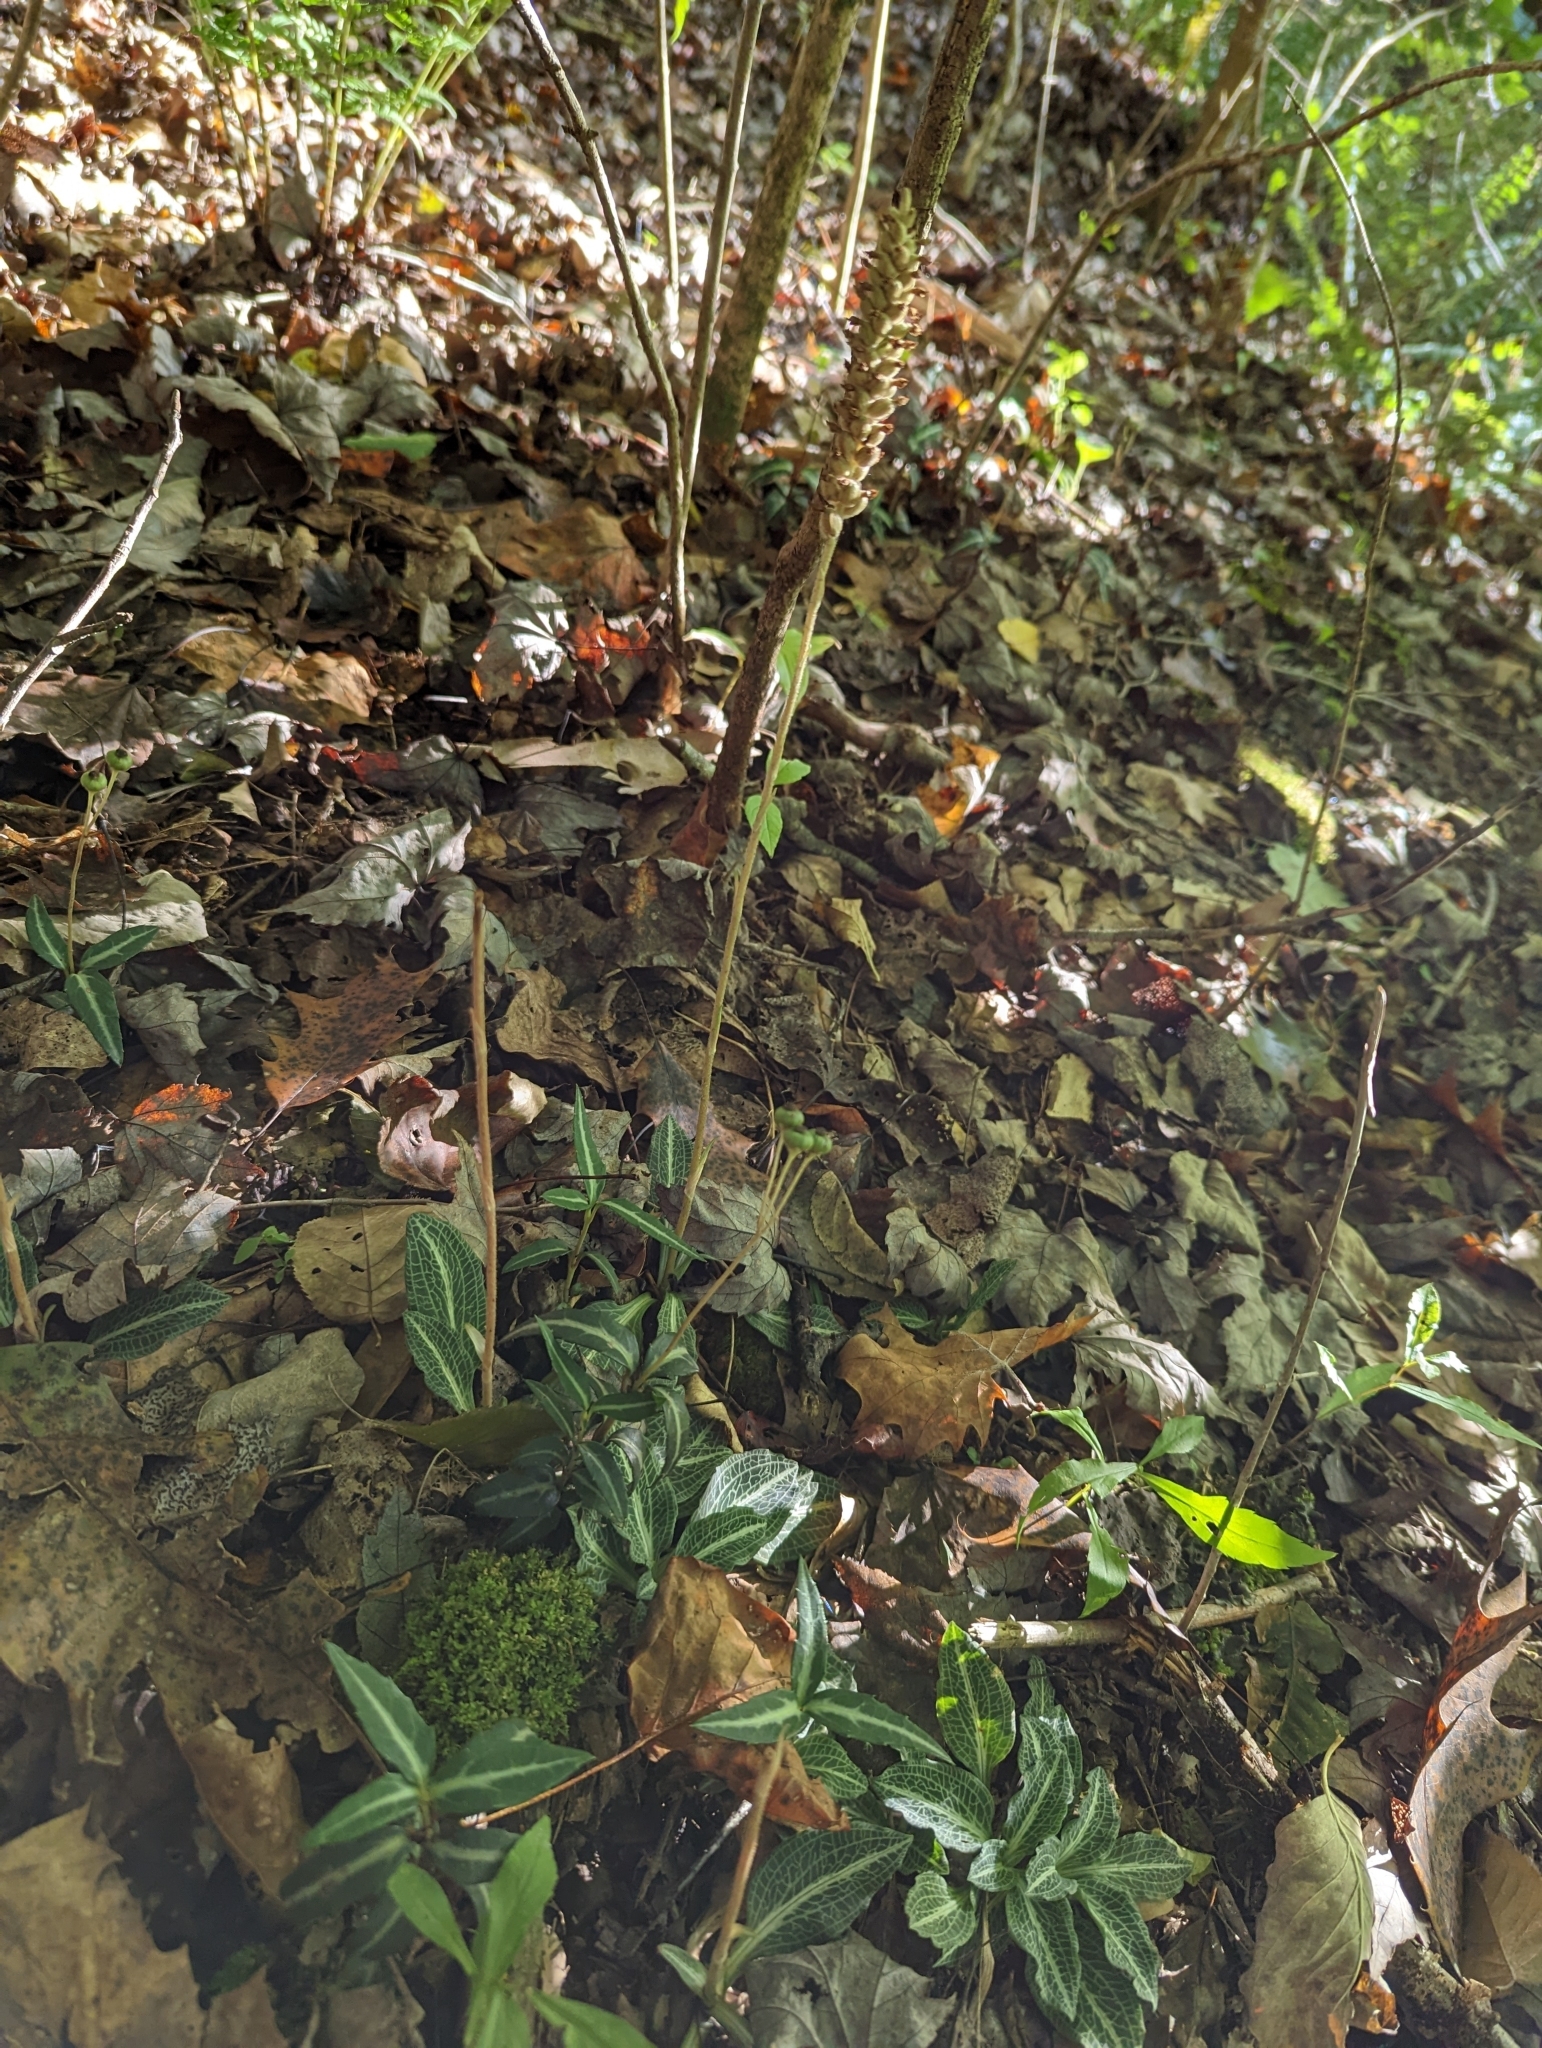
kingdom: Plantae
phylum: Tracheophyta
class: Liliopsida
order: Asparagales
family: Orchidaceae
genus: Goodyera
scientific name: Goodyera pubescens
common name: Downy rattlesnake-plantain
